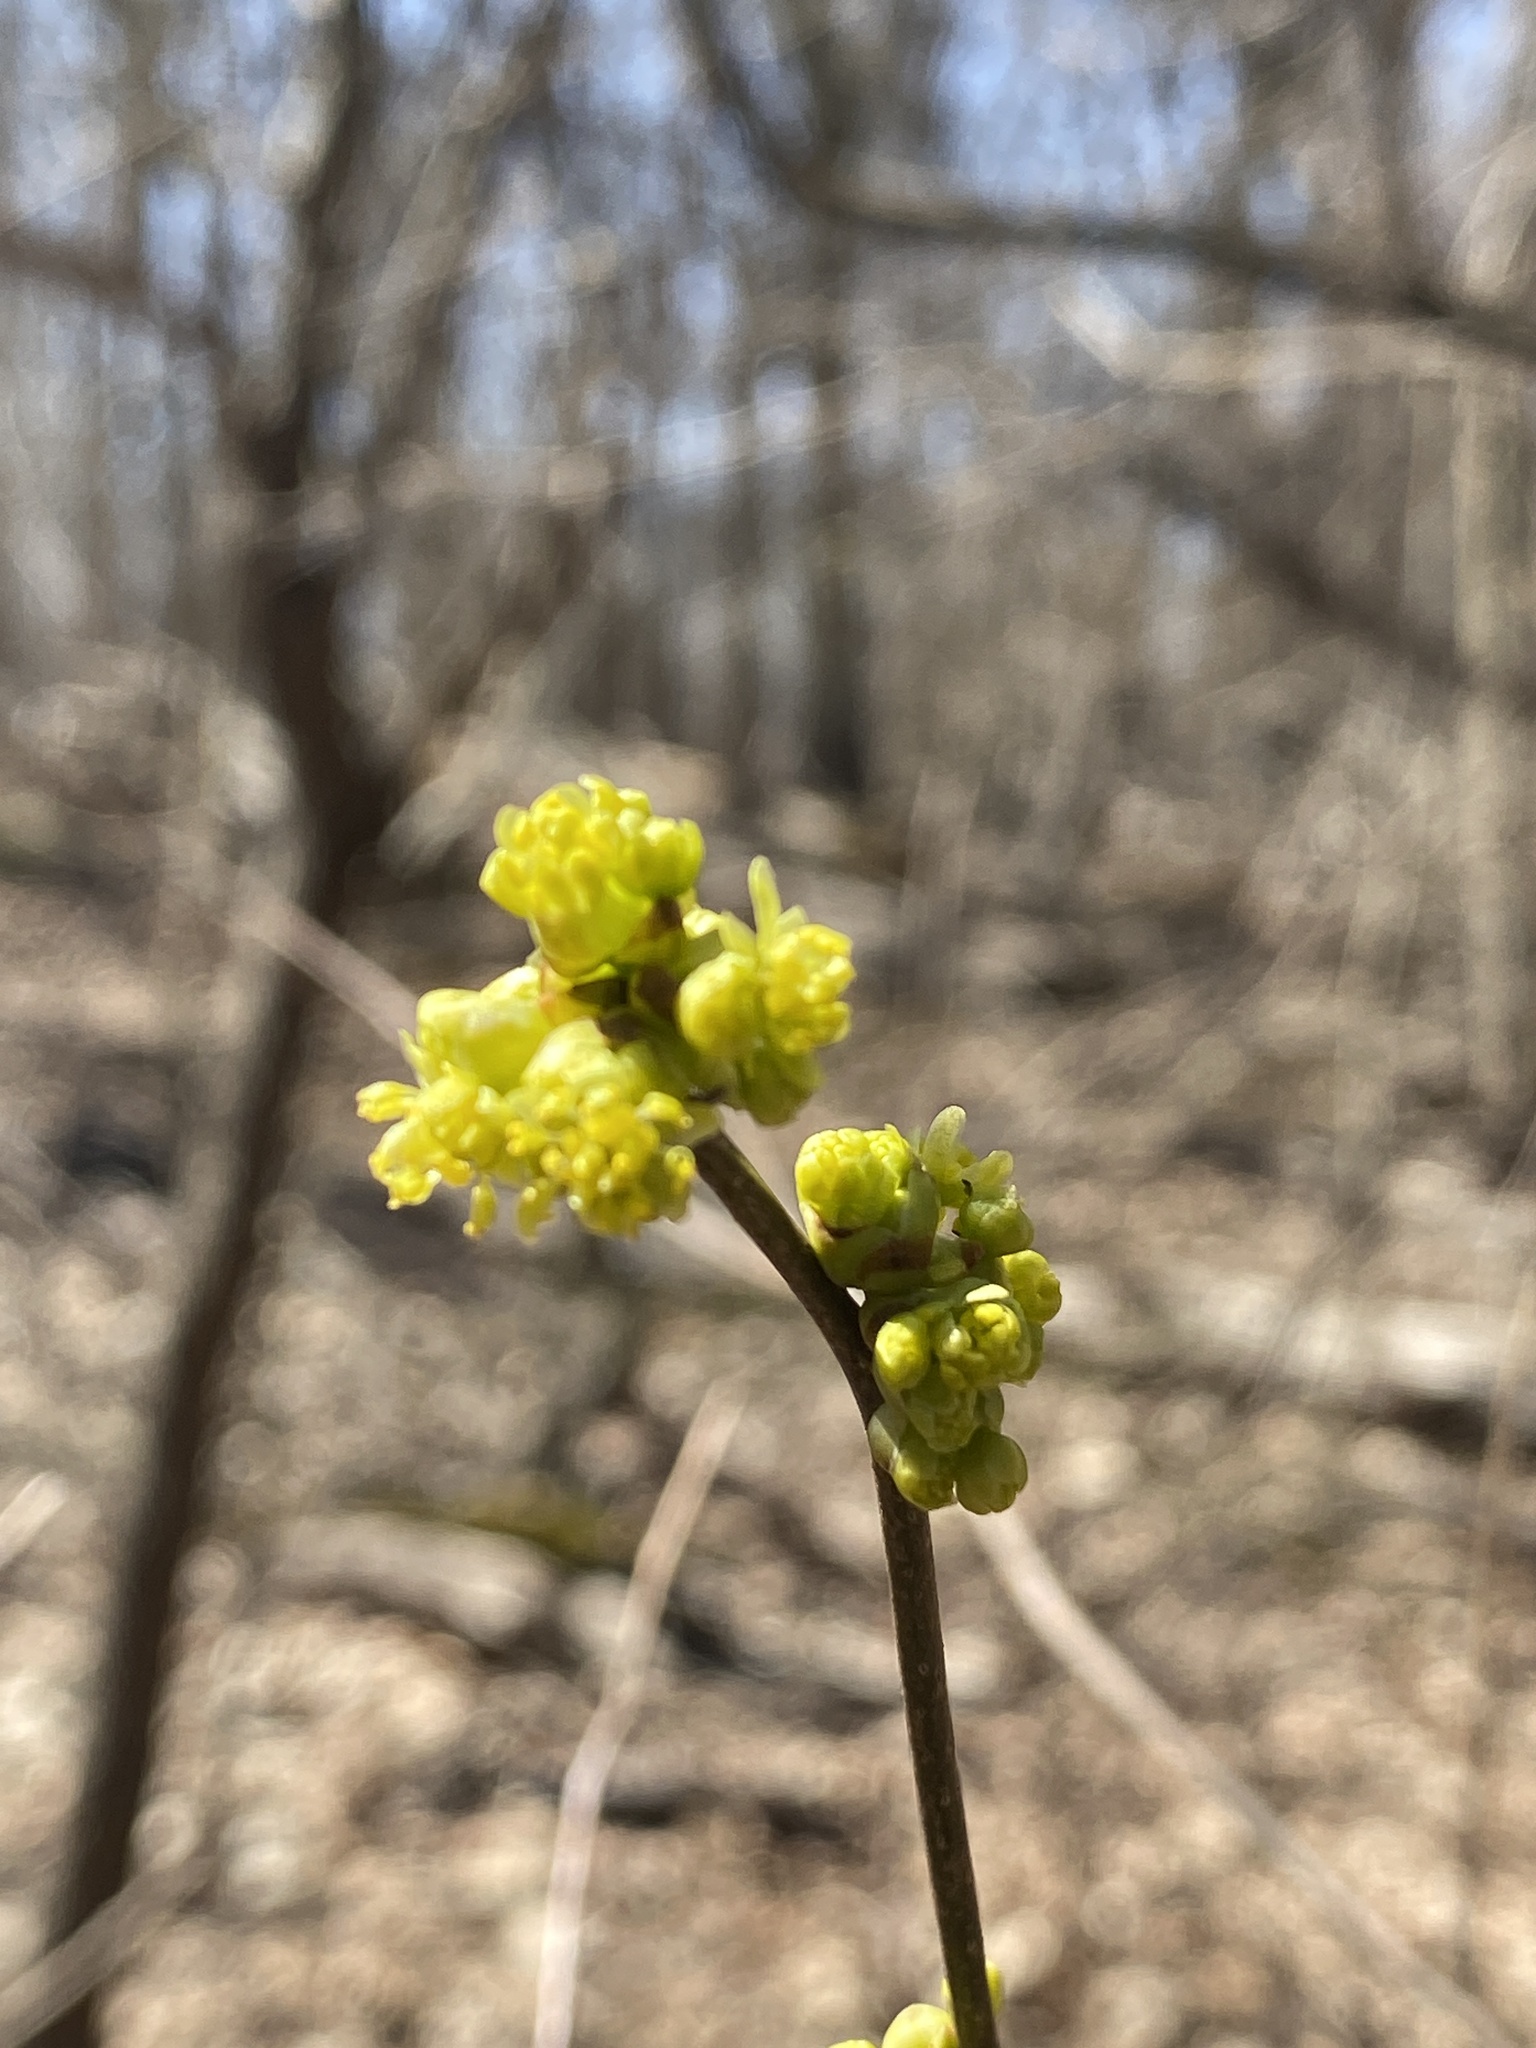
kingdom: Plantae
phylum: Tracheophyta
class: Magnoliopsida
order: Laurales
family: Lauraceae
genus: Lindera
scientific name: Lindera benzoin
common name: Spicebush
